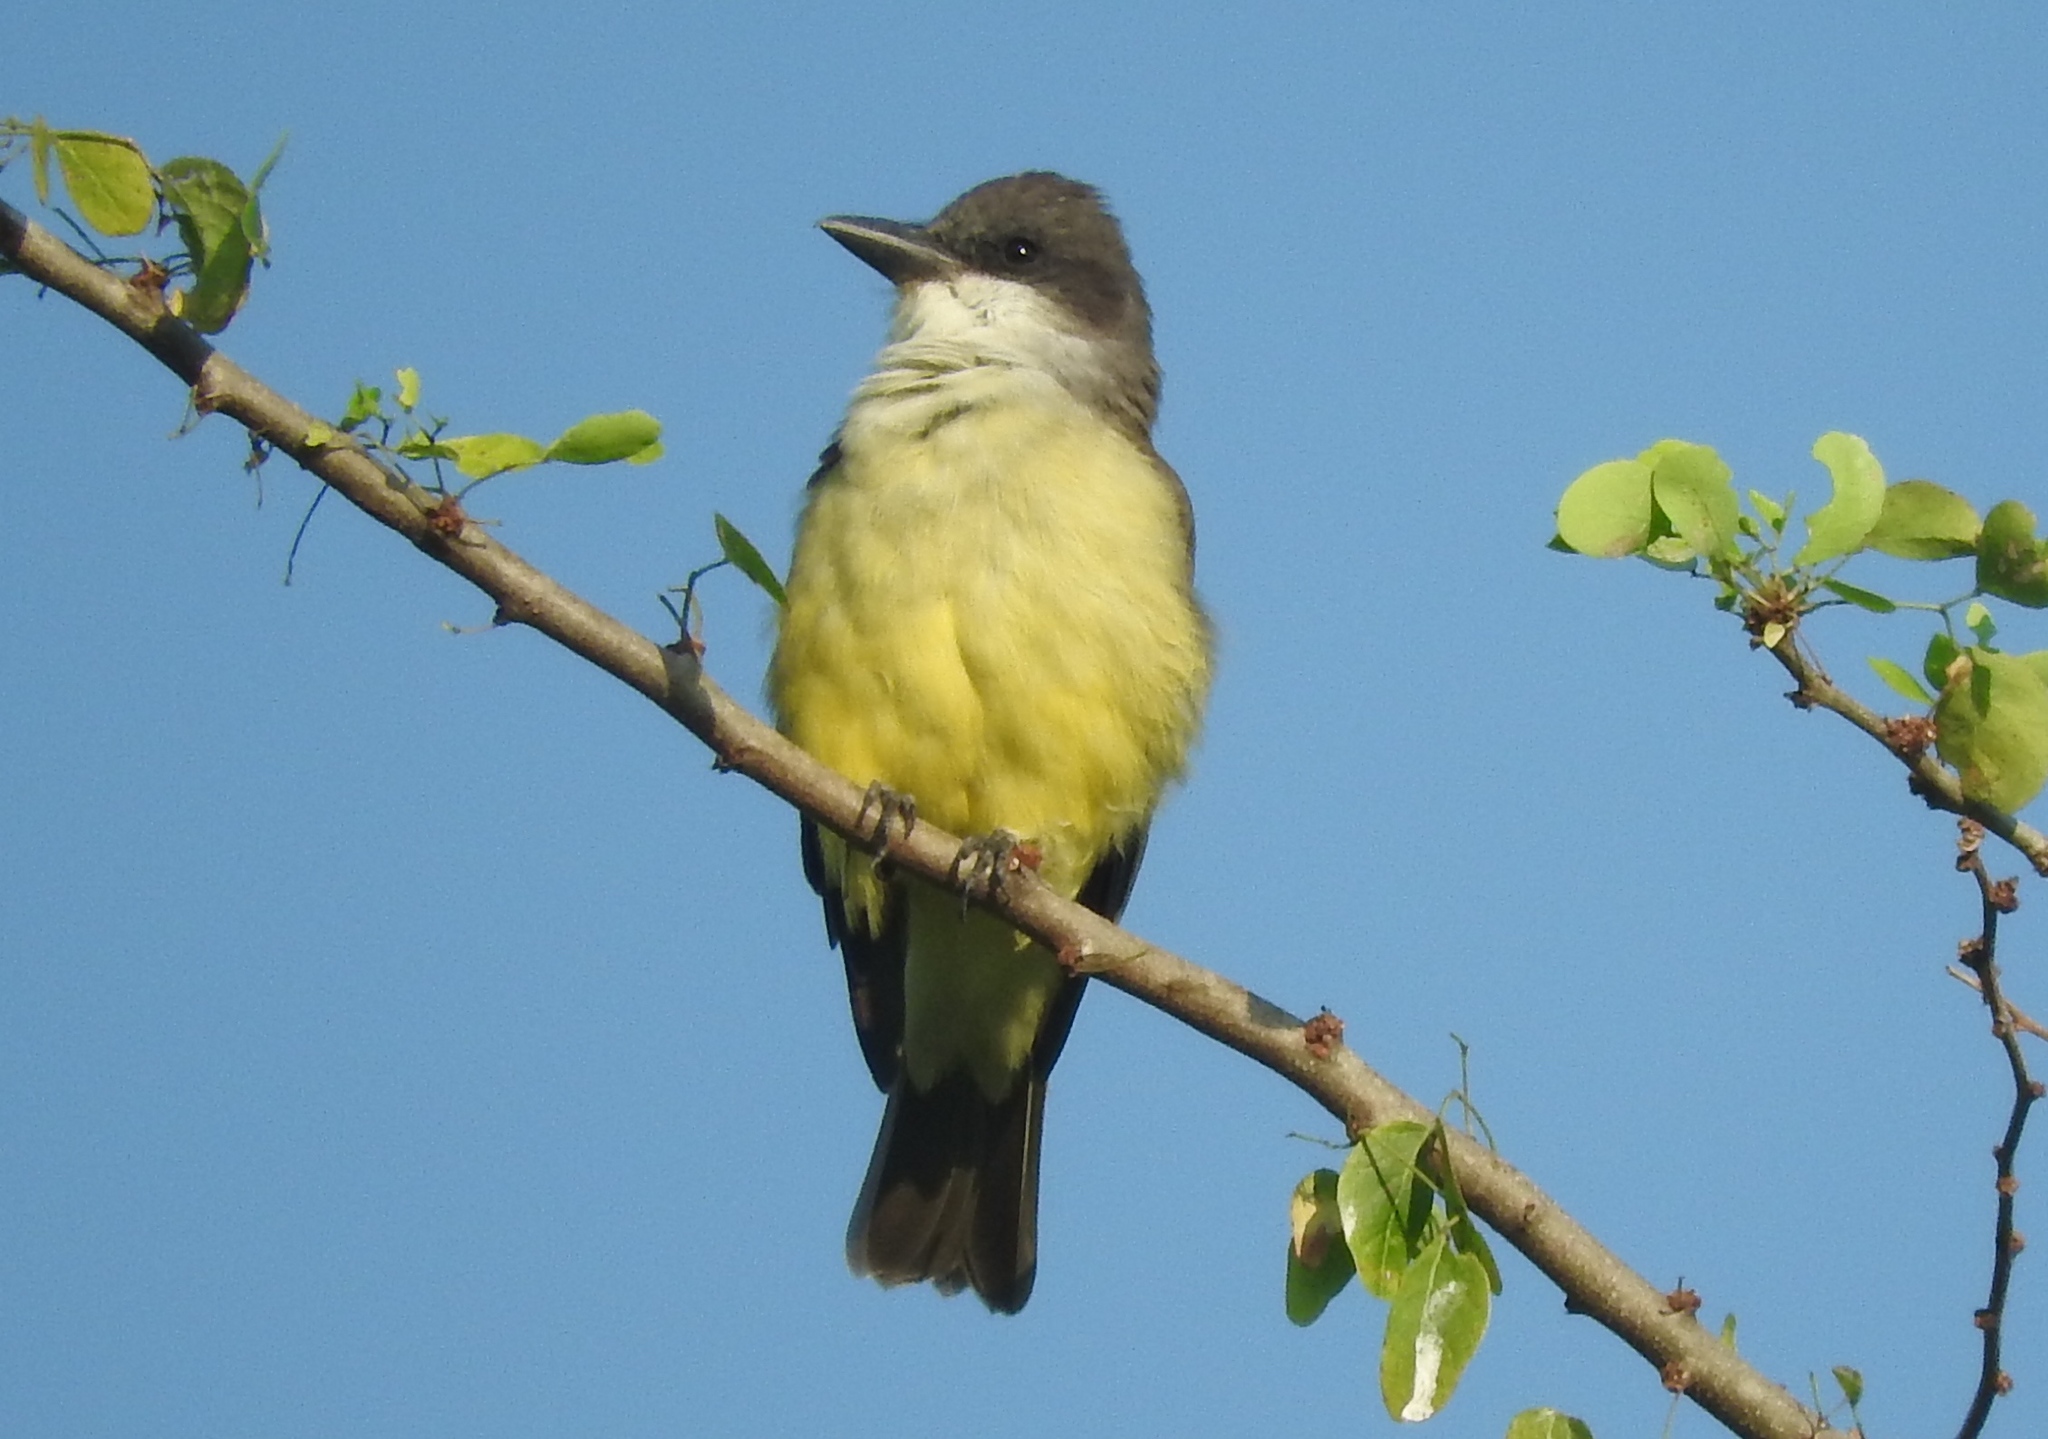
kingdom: Animalia
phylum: Chordata
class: Aves
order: Passeriformes
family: Tyrannidae
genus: Tyrannus
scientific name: Tyrannus crassirostris
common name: Thick-billed kingbird
